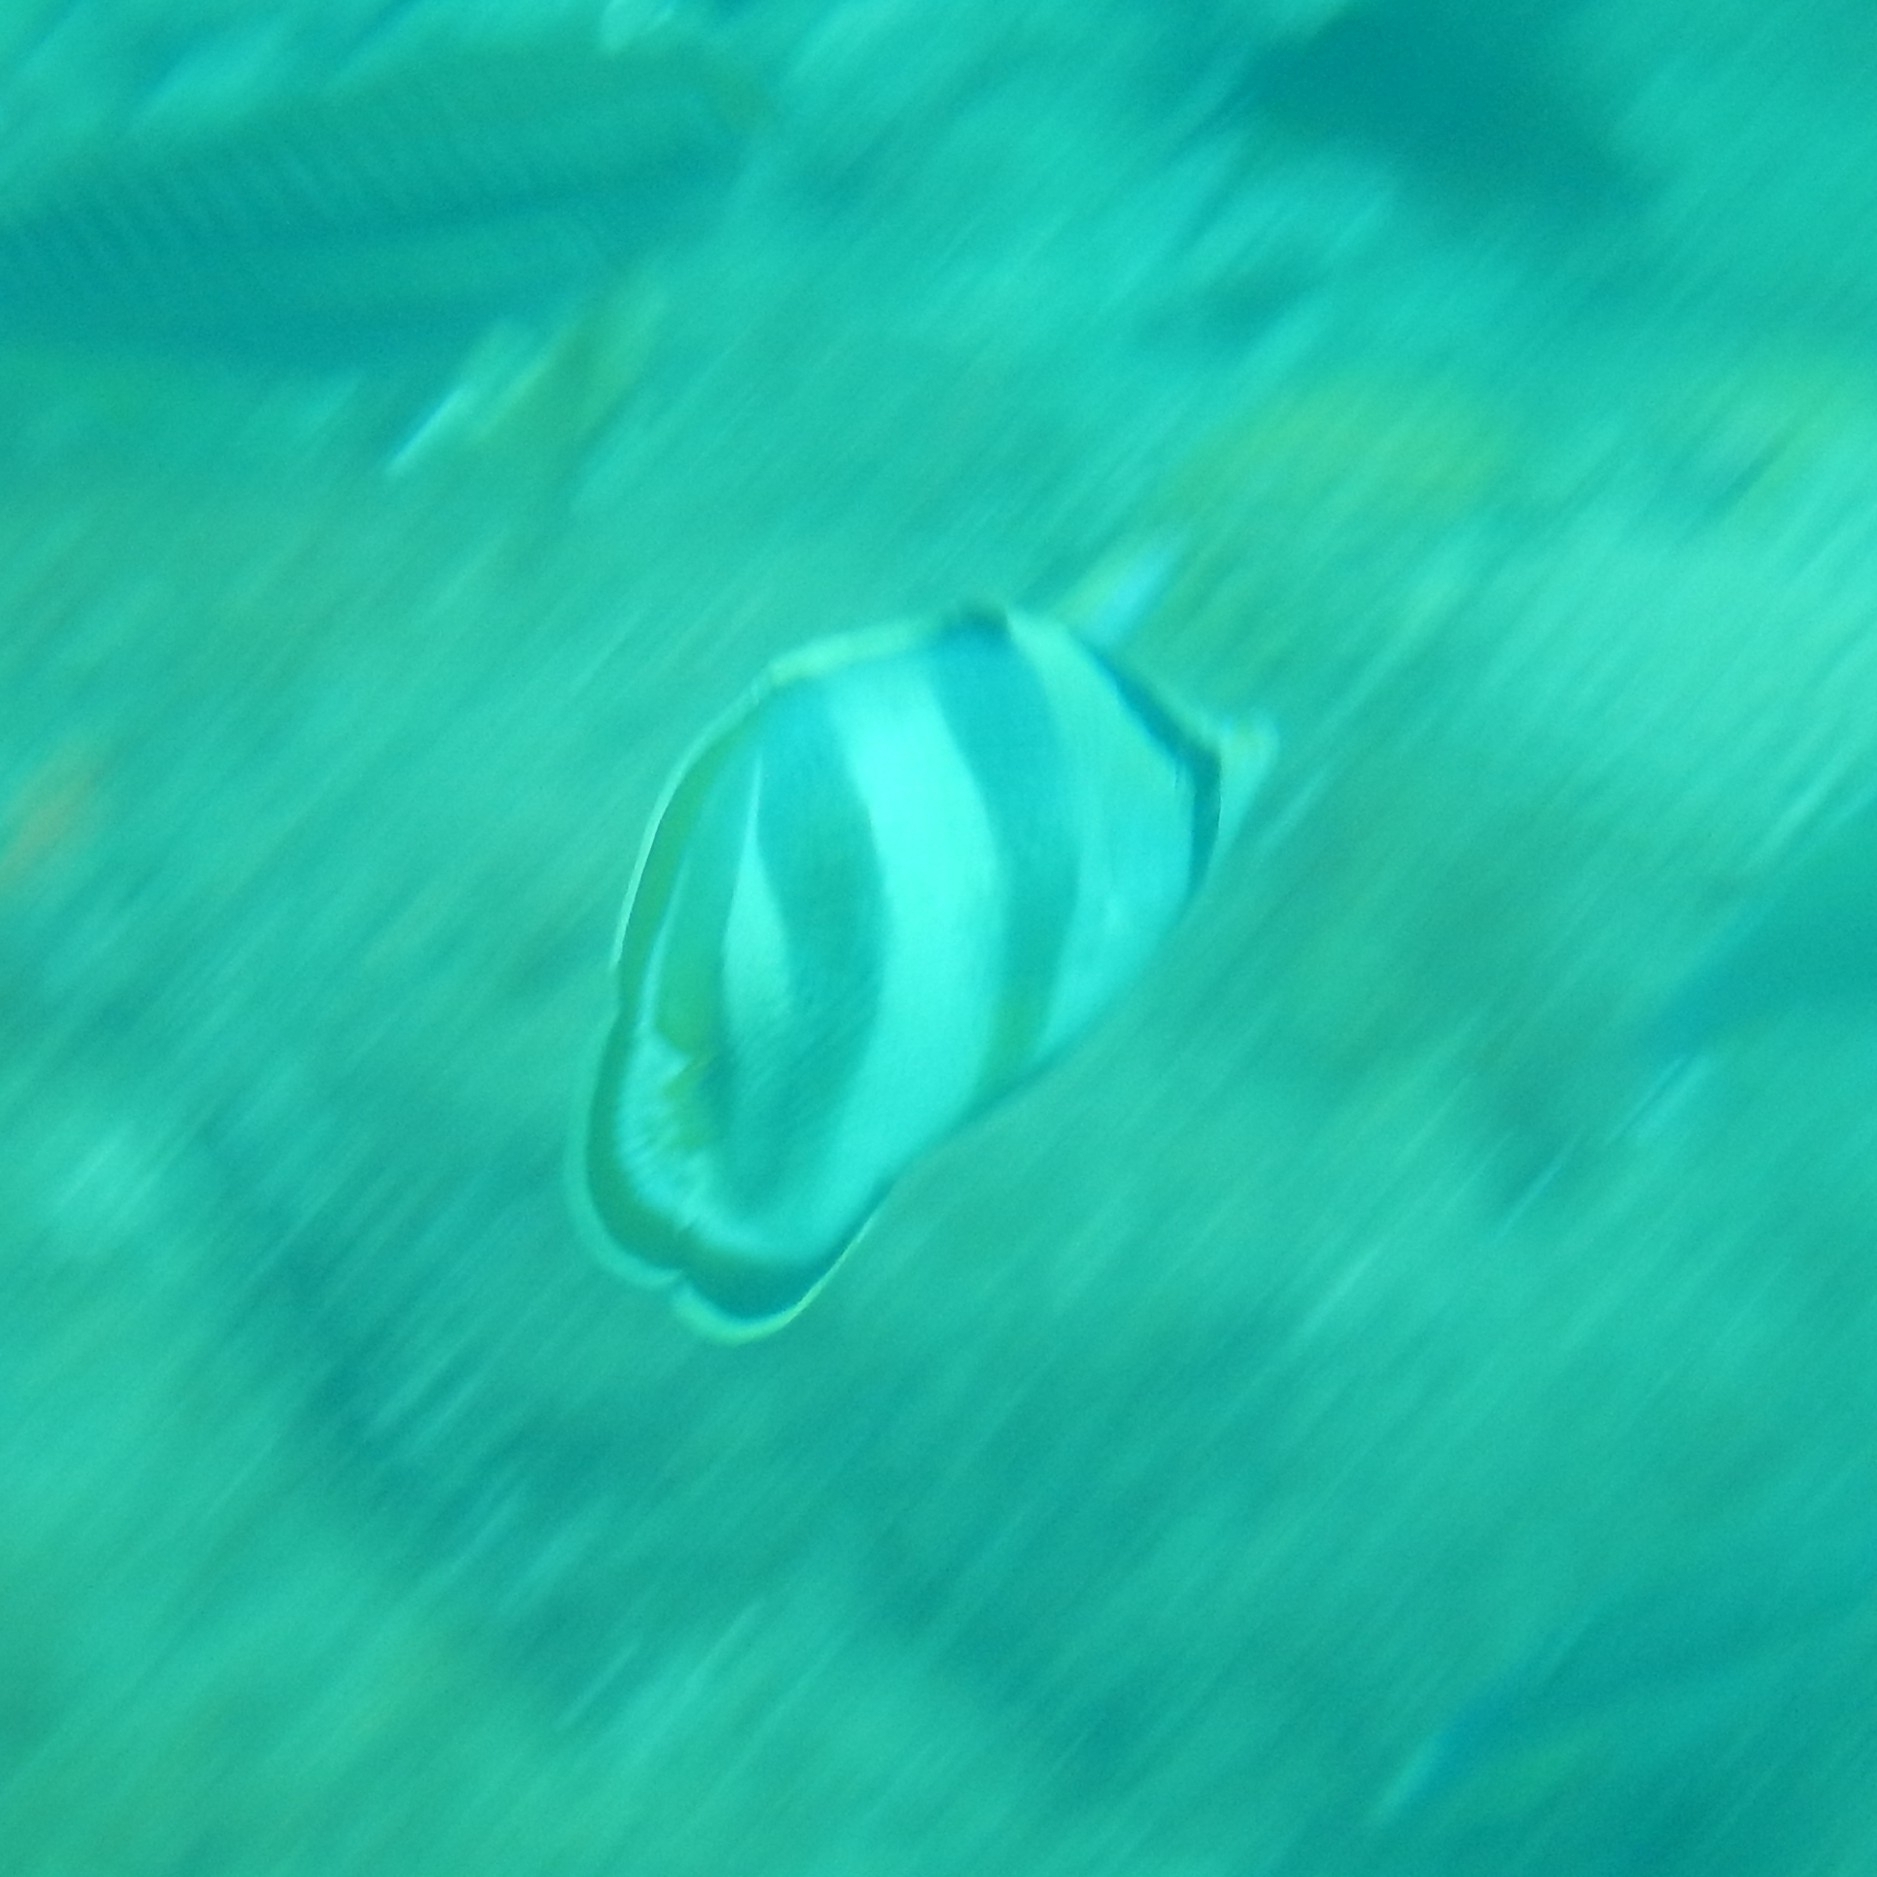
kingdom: Animalia
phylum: Chordata
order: Perciformes
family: Chaetodontidae
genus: Chaetodon
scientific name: Chaetodon striatus
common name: Banded butterflyfish
